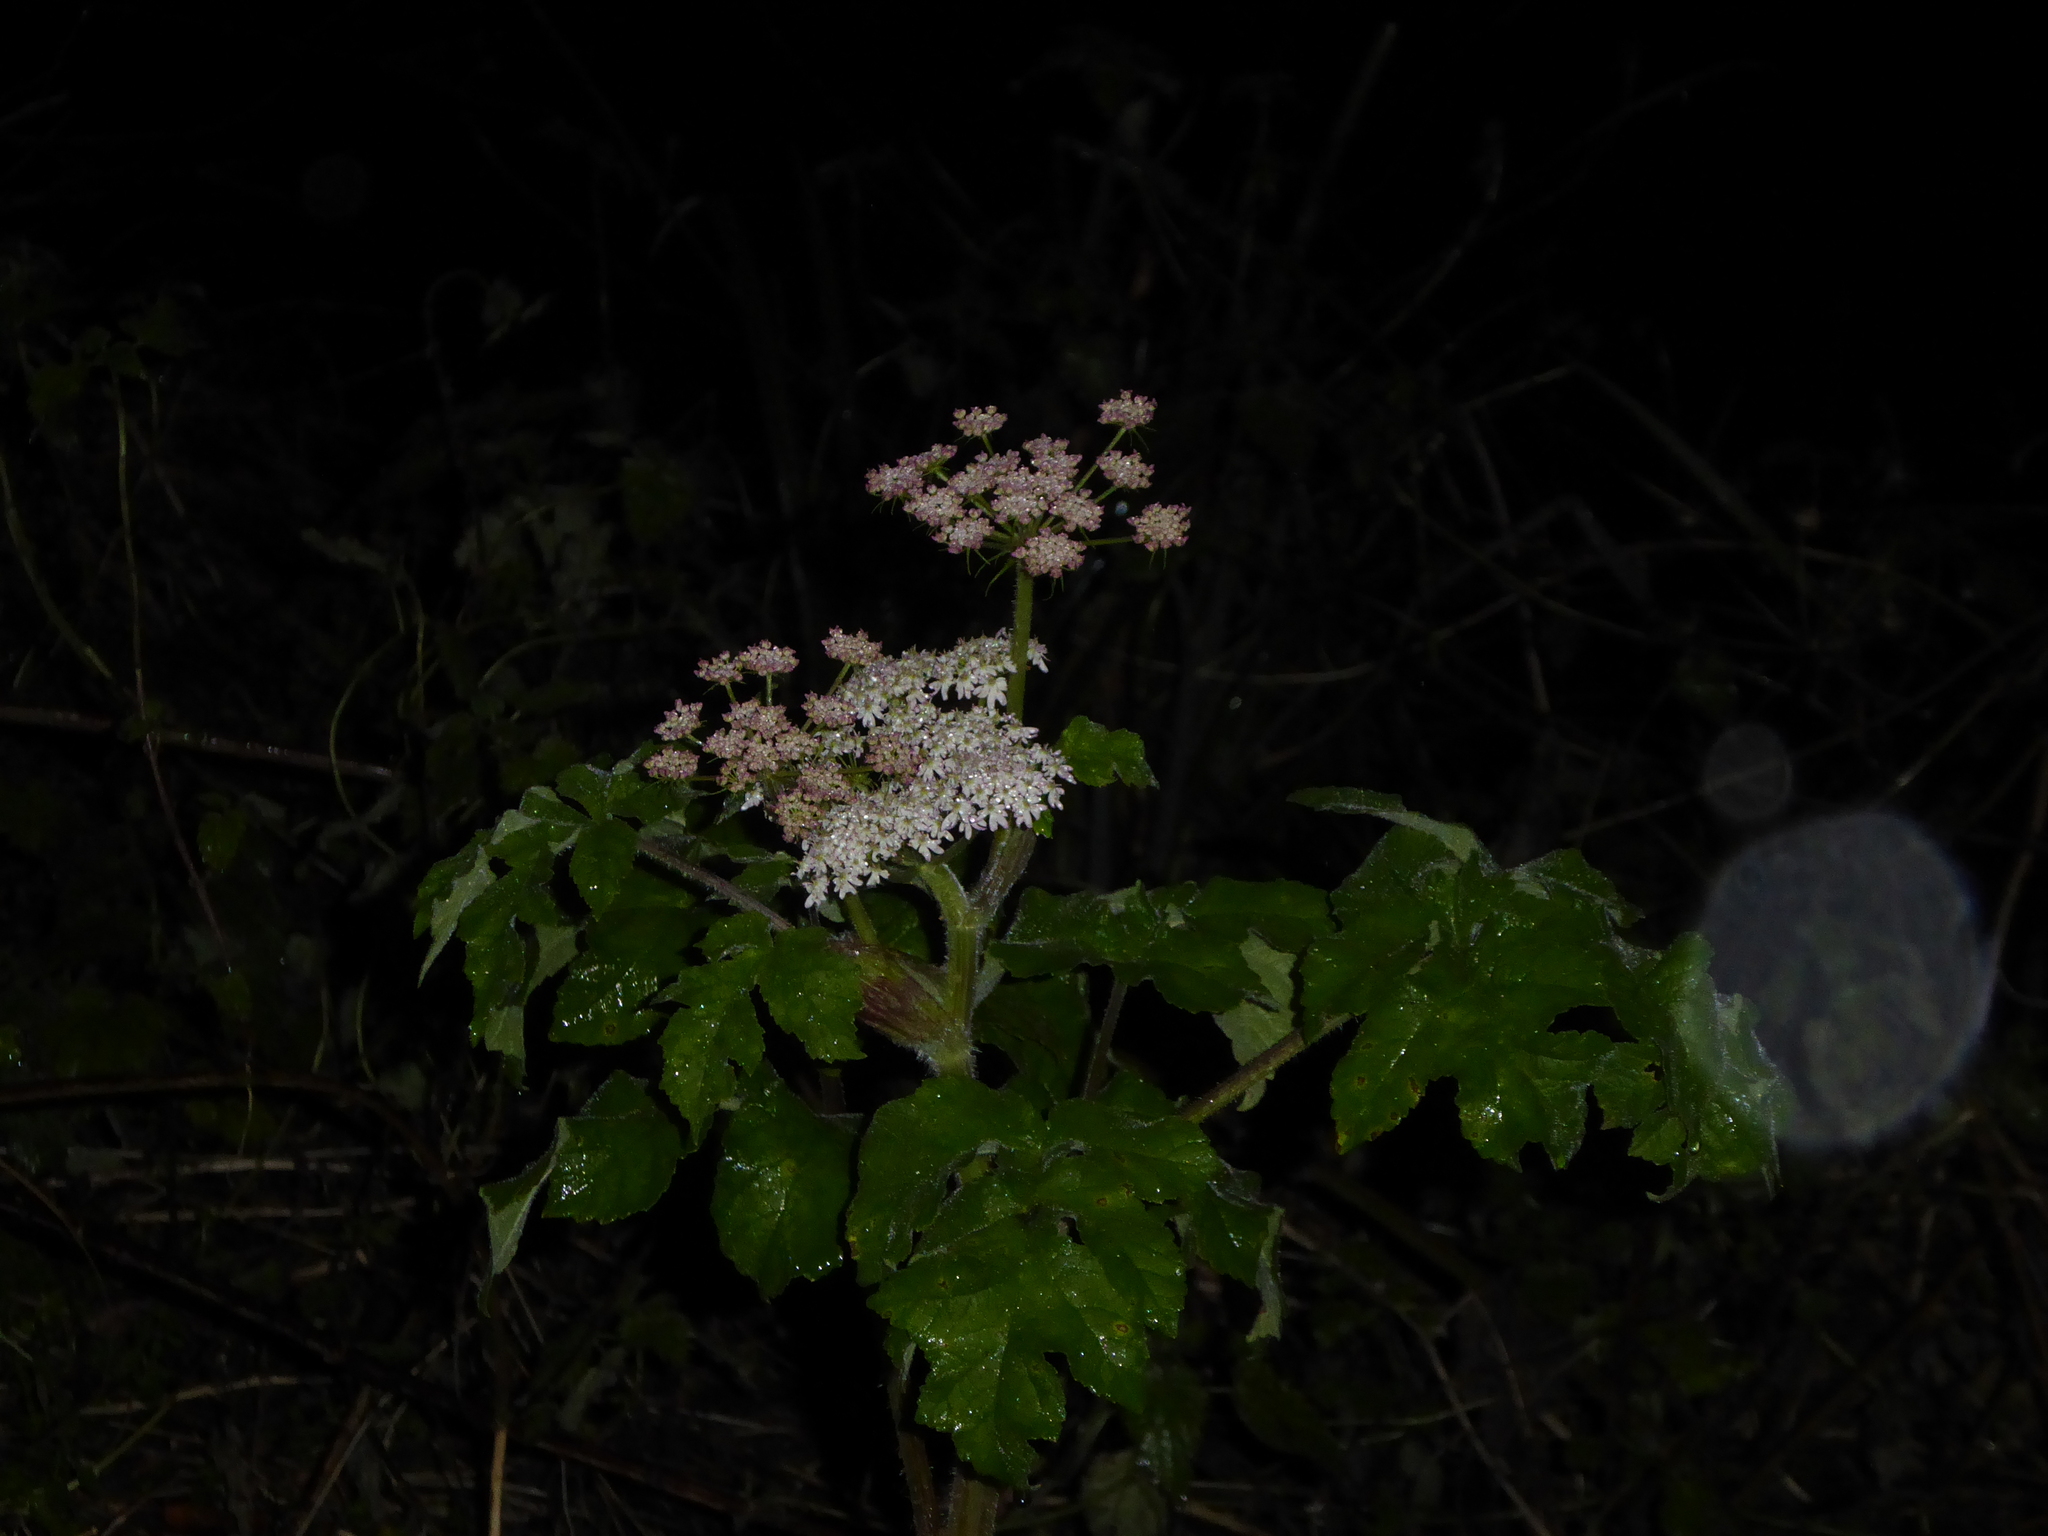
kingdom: Plantae
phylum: Tracheophyta
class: Magnoliopsida
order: Apiales
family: Apiaceae
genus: Heracleum
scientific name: Heracleum sphondylium
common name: Hogweed
